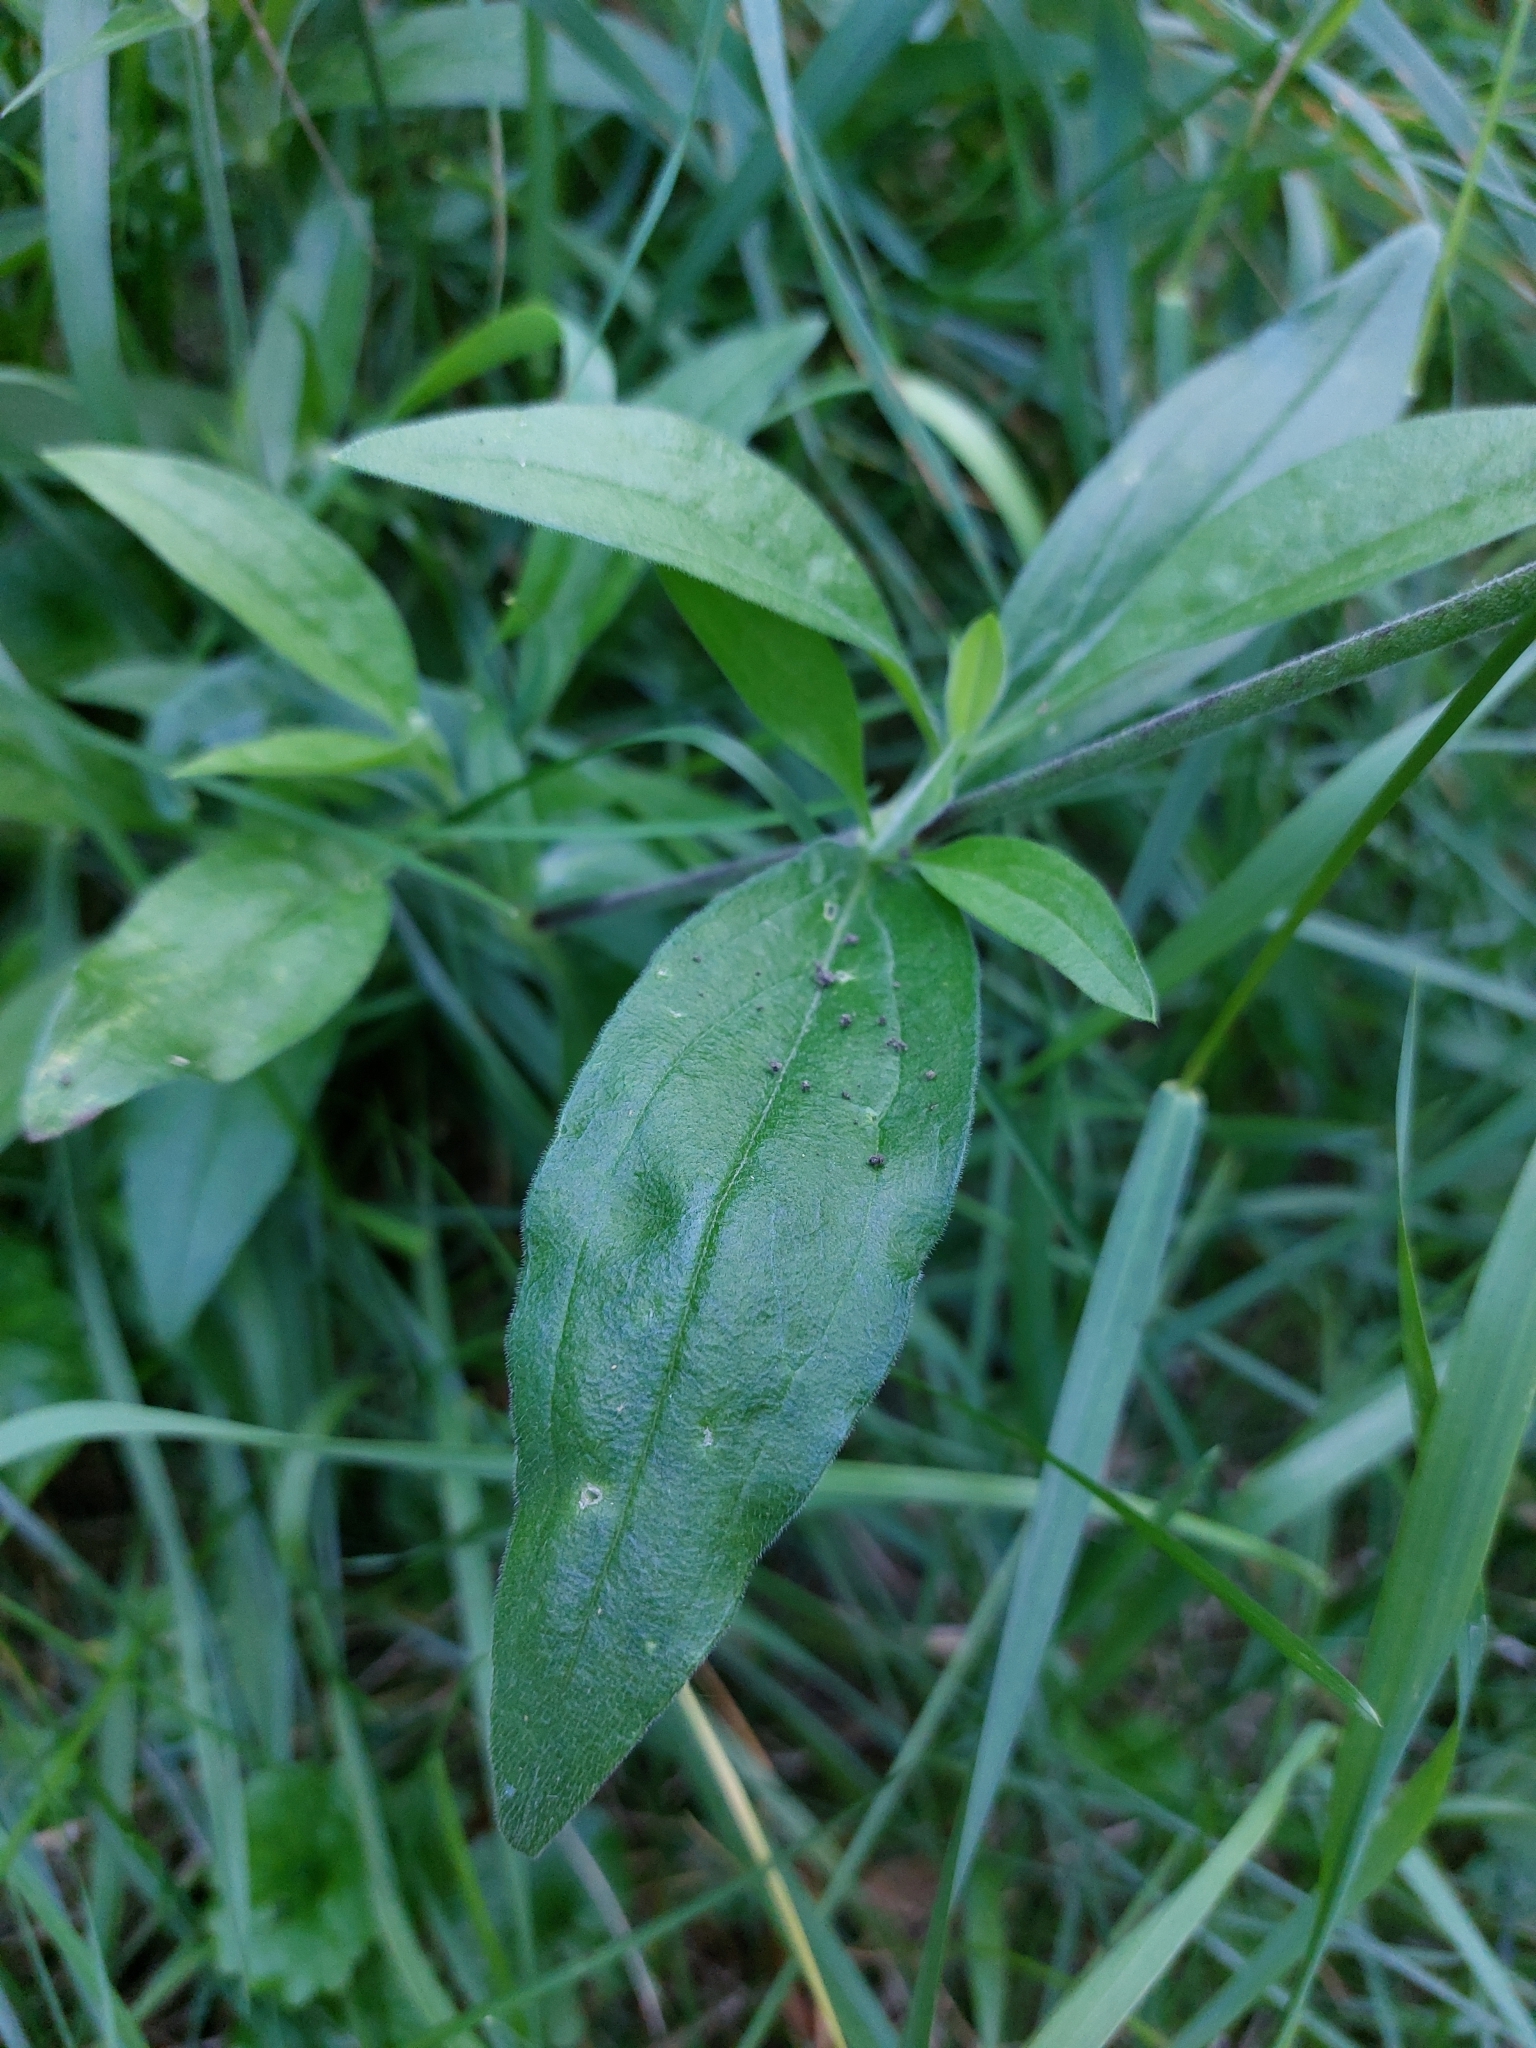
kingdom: Plantae
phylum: Tracheophyta
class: Magnoliopsida
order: Caryophyllales
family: Caryophyllaceae
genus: Silene
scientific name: Silene latifolia
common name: White campion
